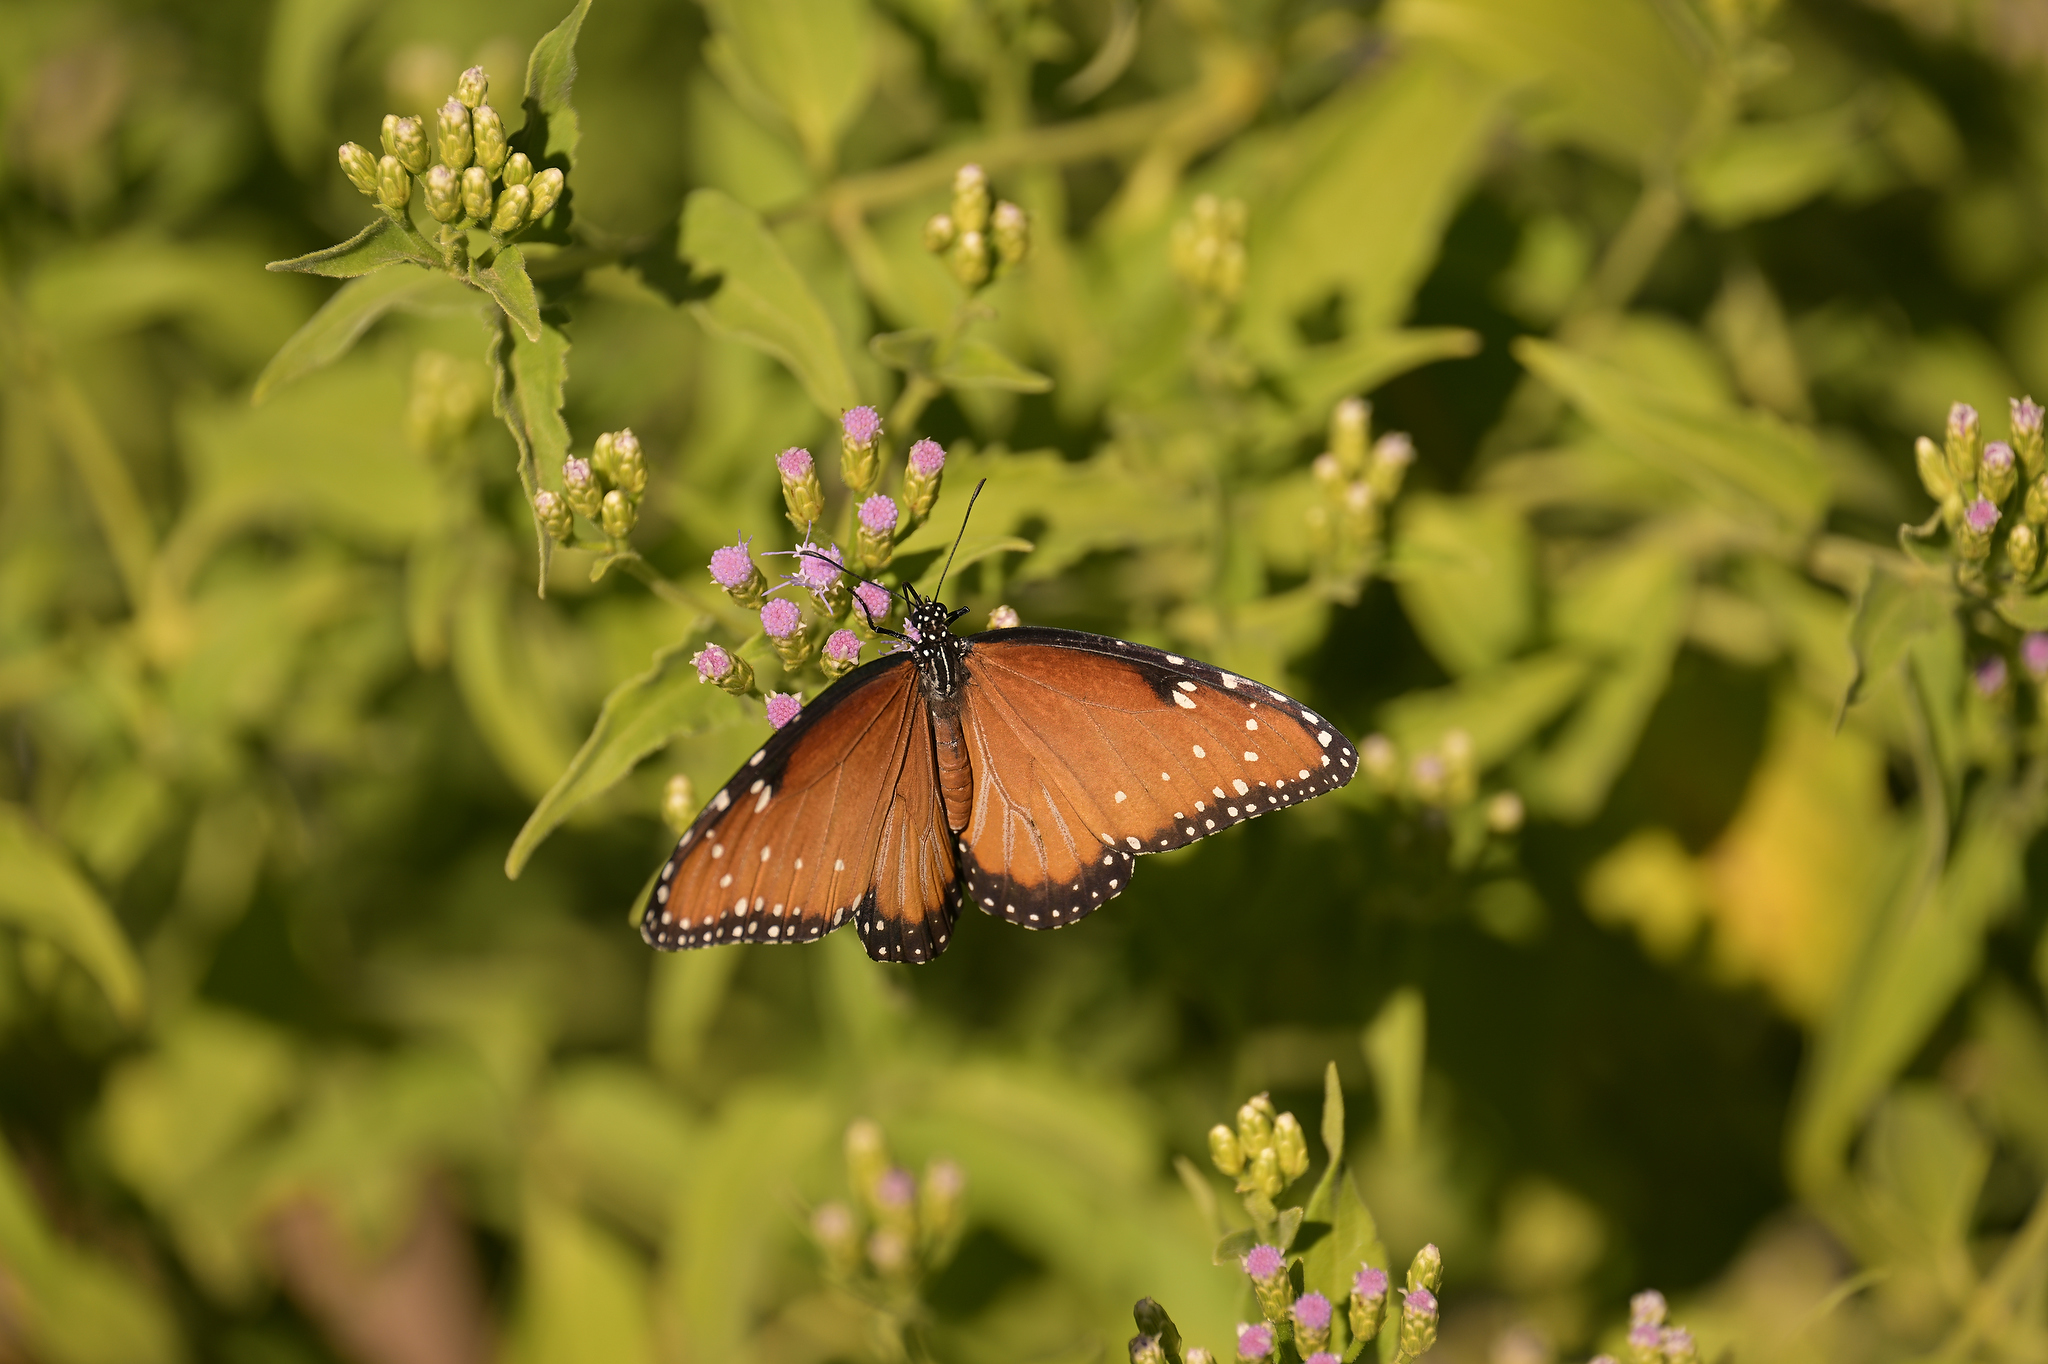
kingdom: Animalia
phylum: Arthropoda
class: Insecta
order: Lepidoptera
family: Nymphalidae
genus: Danaus
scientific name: Danaus gilippus
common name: Queen
